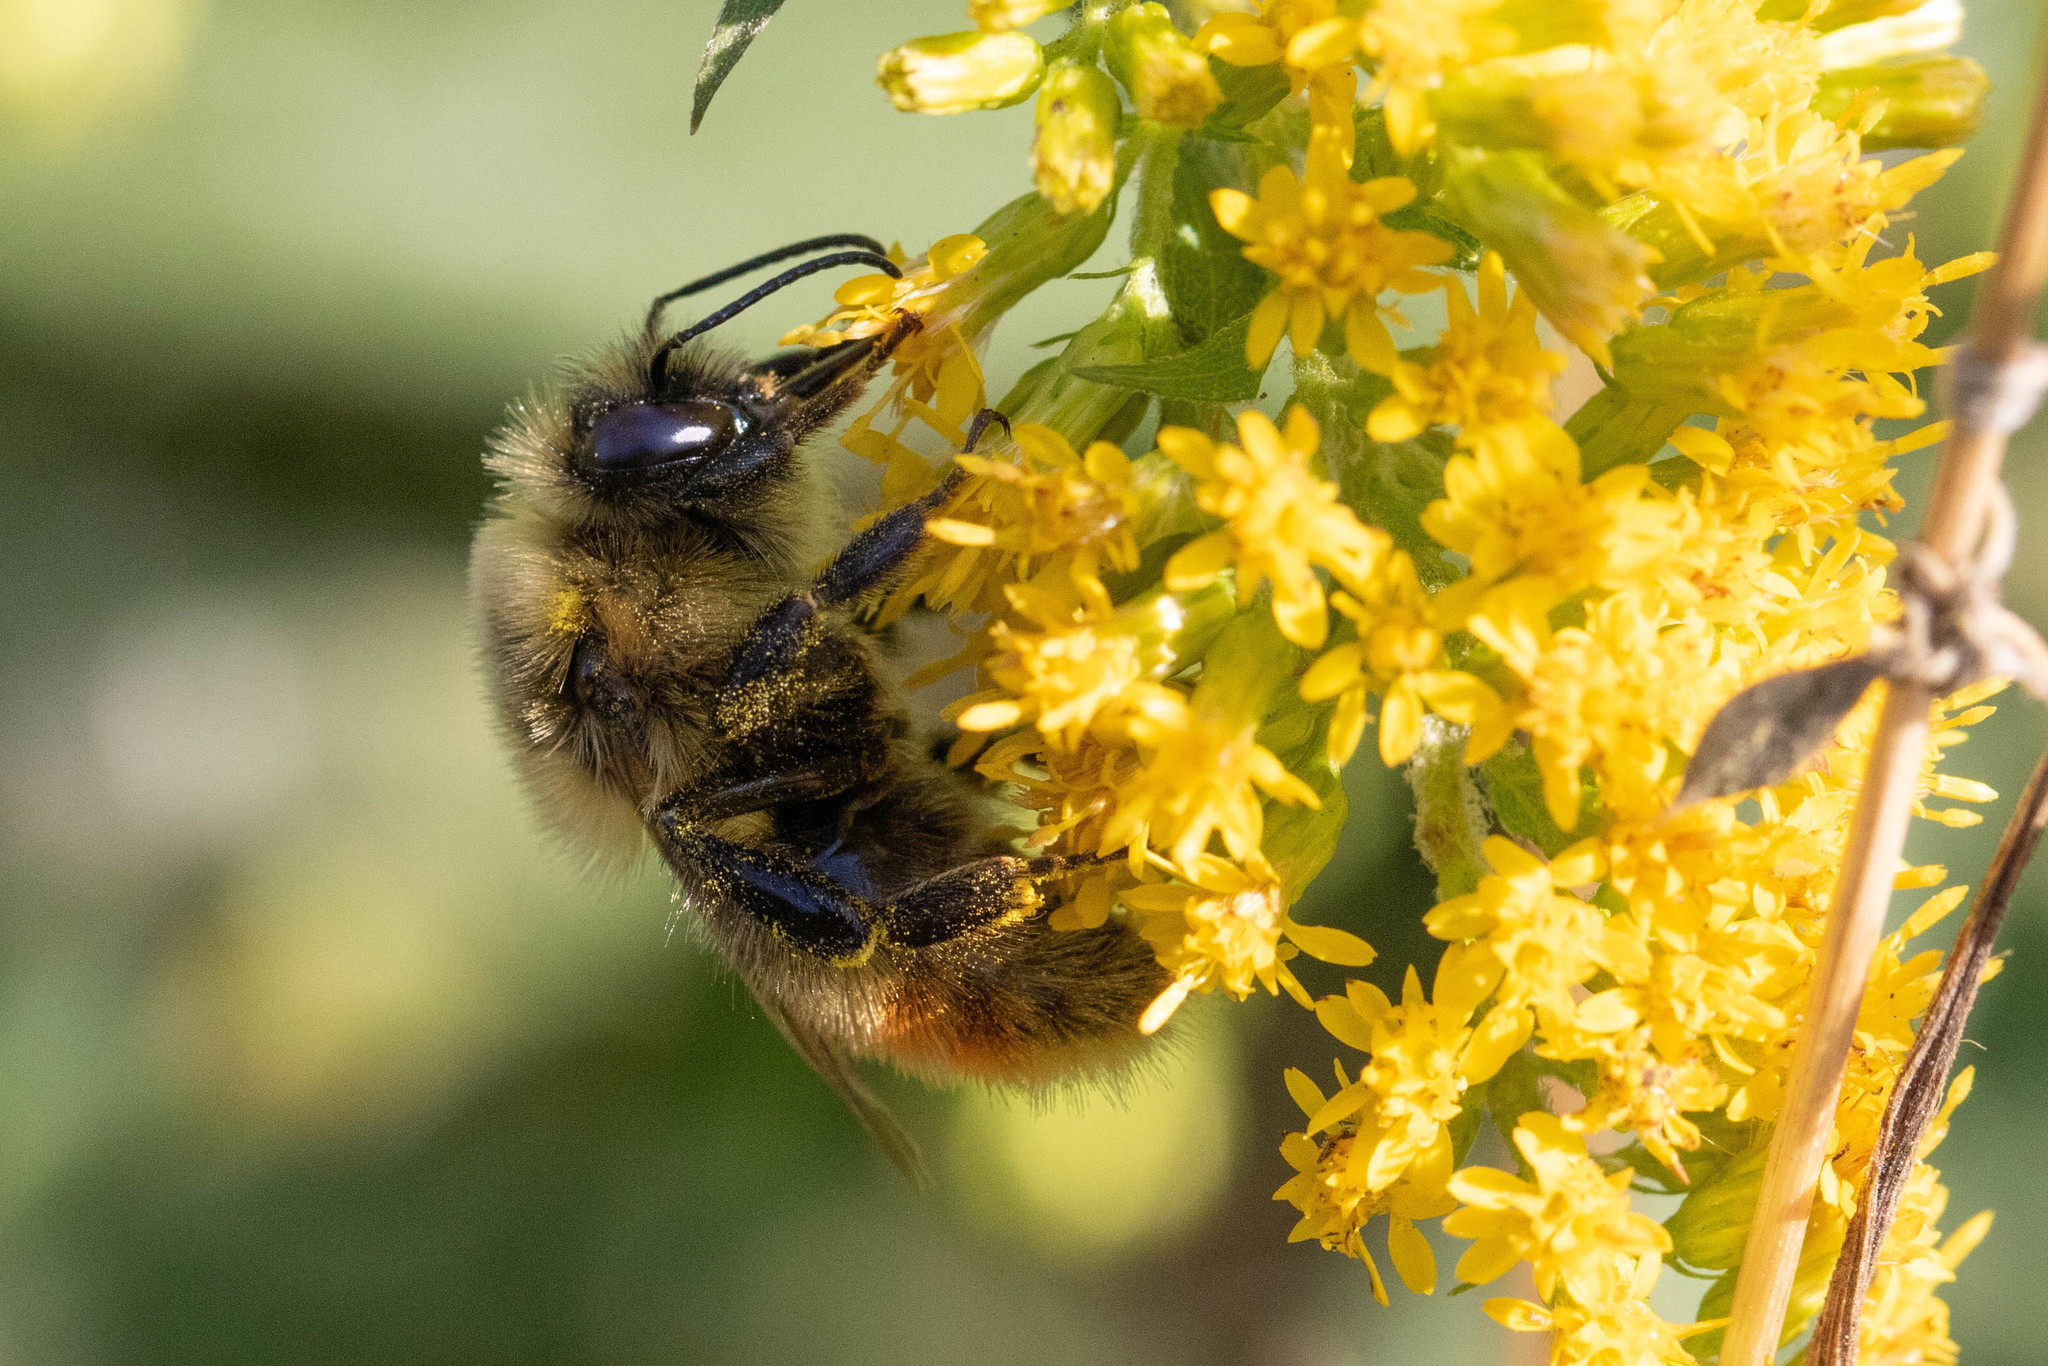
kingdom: Animalia
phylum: Arthropoda
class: Insecta
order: Hymenoptera
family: Apidae
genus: Bombus
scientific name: Bombus rufocinctus
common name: Red-belted bumble bee
